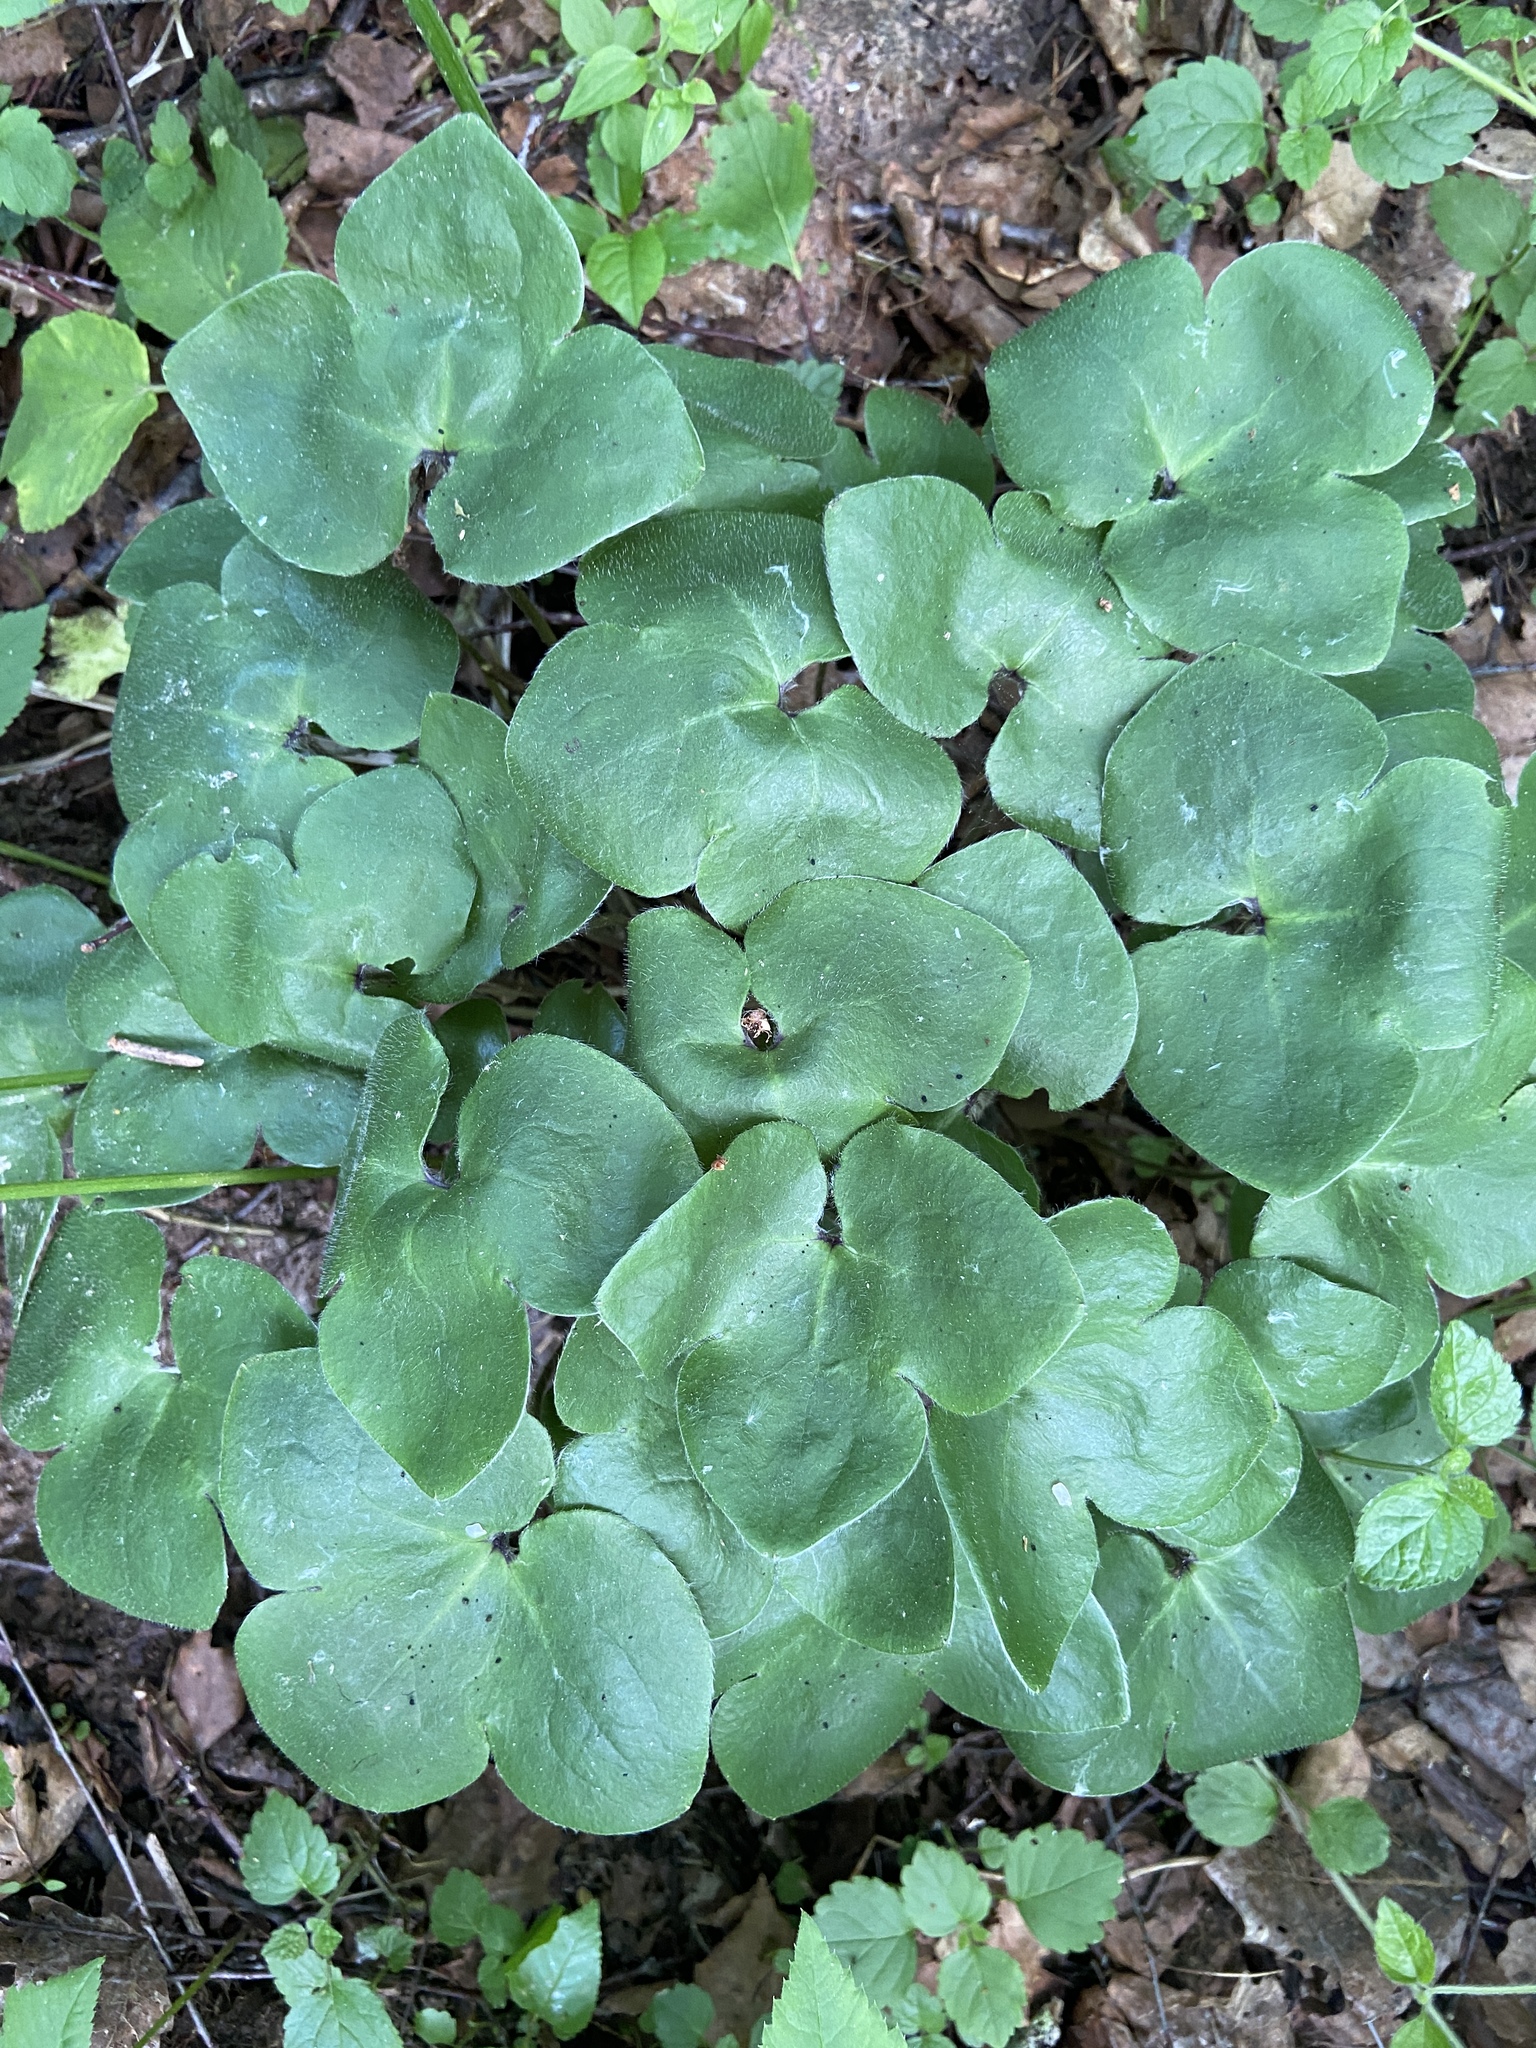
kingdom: Plantae
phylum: Tracheophyta
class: Magnoliopsida
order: Ranunculales
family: Ranunculaceae
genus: Hepatica
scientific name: Hepatica nobilis
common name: Liverleaf
